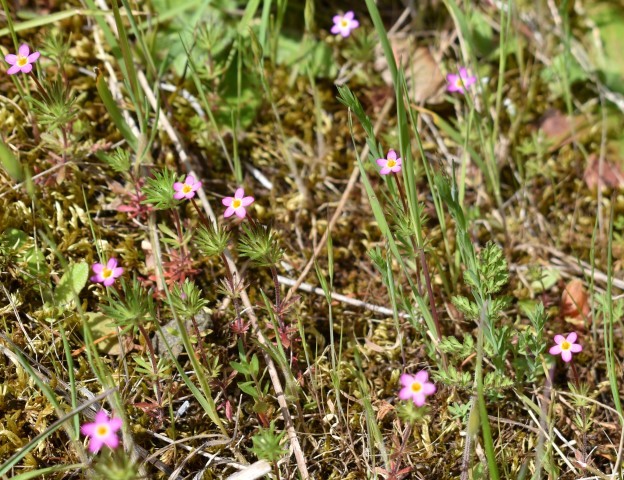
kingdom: Plantae
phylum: Tracheophyta
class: Magnoliopsida
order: Ericales
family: Polemoniaceae
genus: Leptosiphon
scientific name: Leptosiphon bicolor
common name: True babystars
